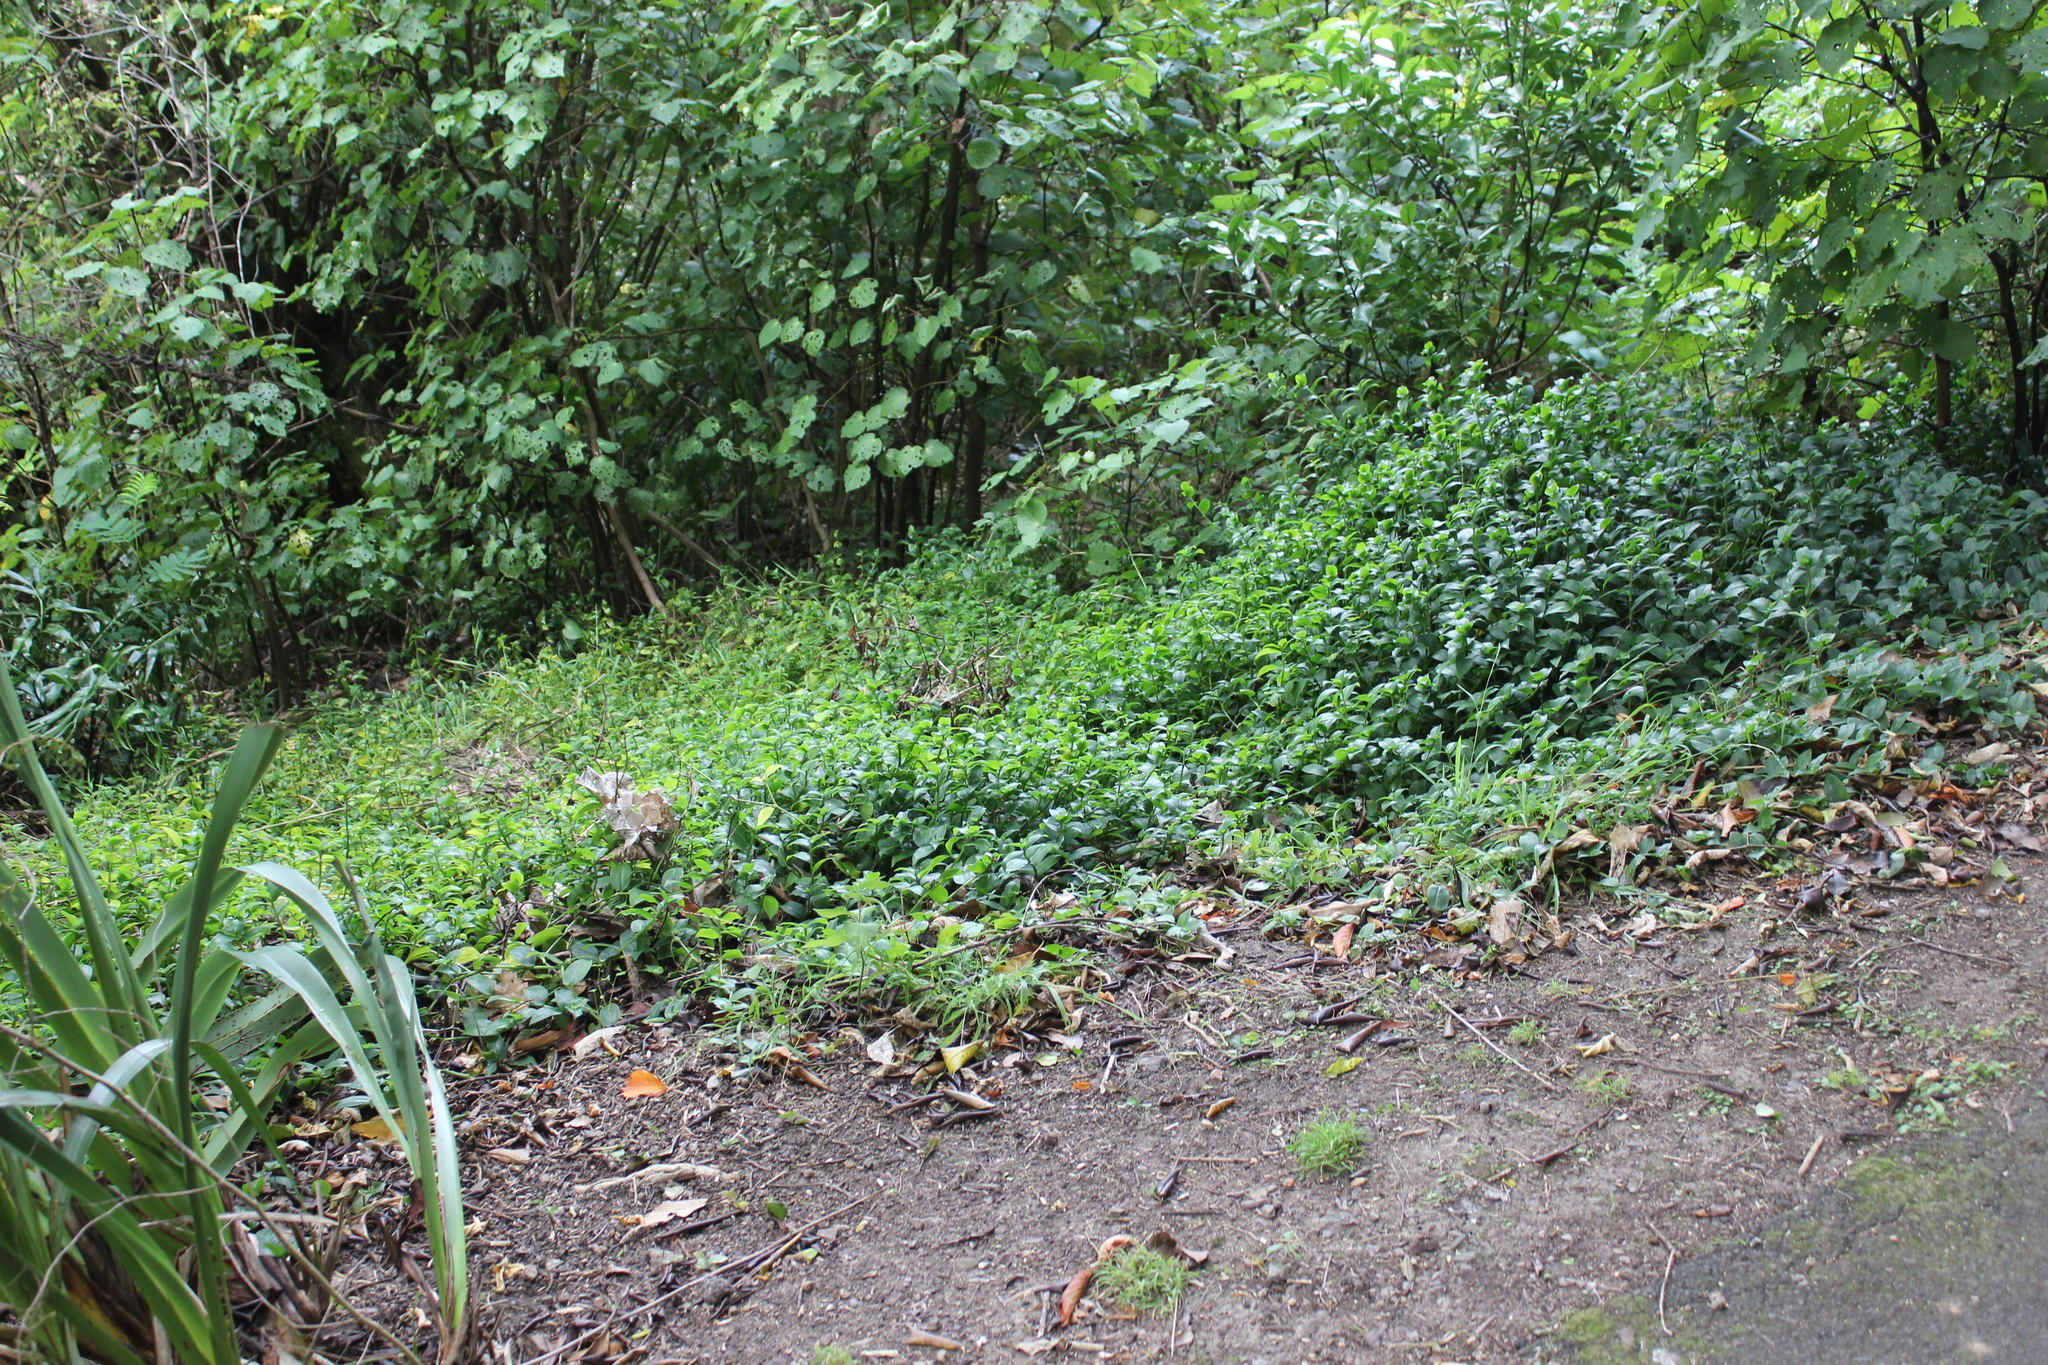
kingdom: Plantae
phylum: Tracheophyta
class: Liliopsida
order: Commelinales
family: Commelinaceae
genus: Tradescantia
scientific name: Tradescantia fluminensis
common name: Wandering-jew
